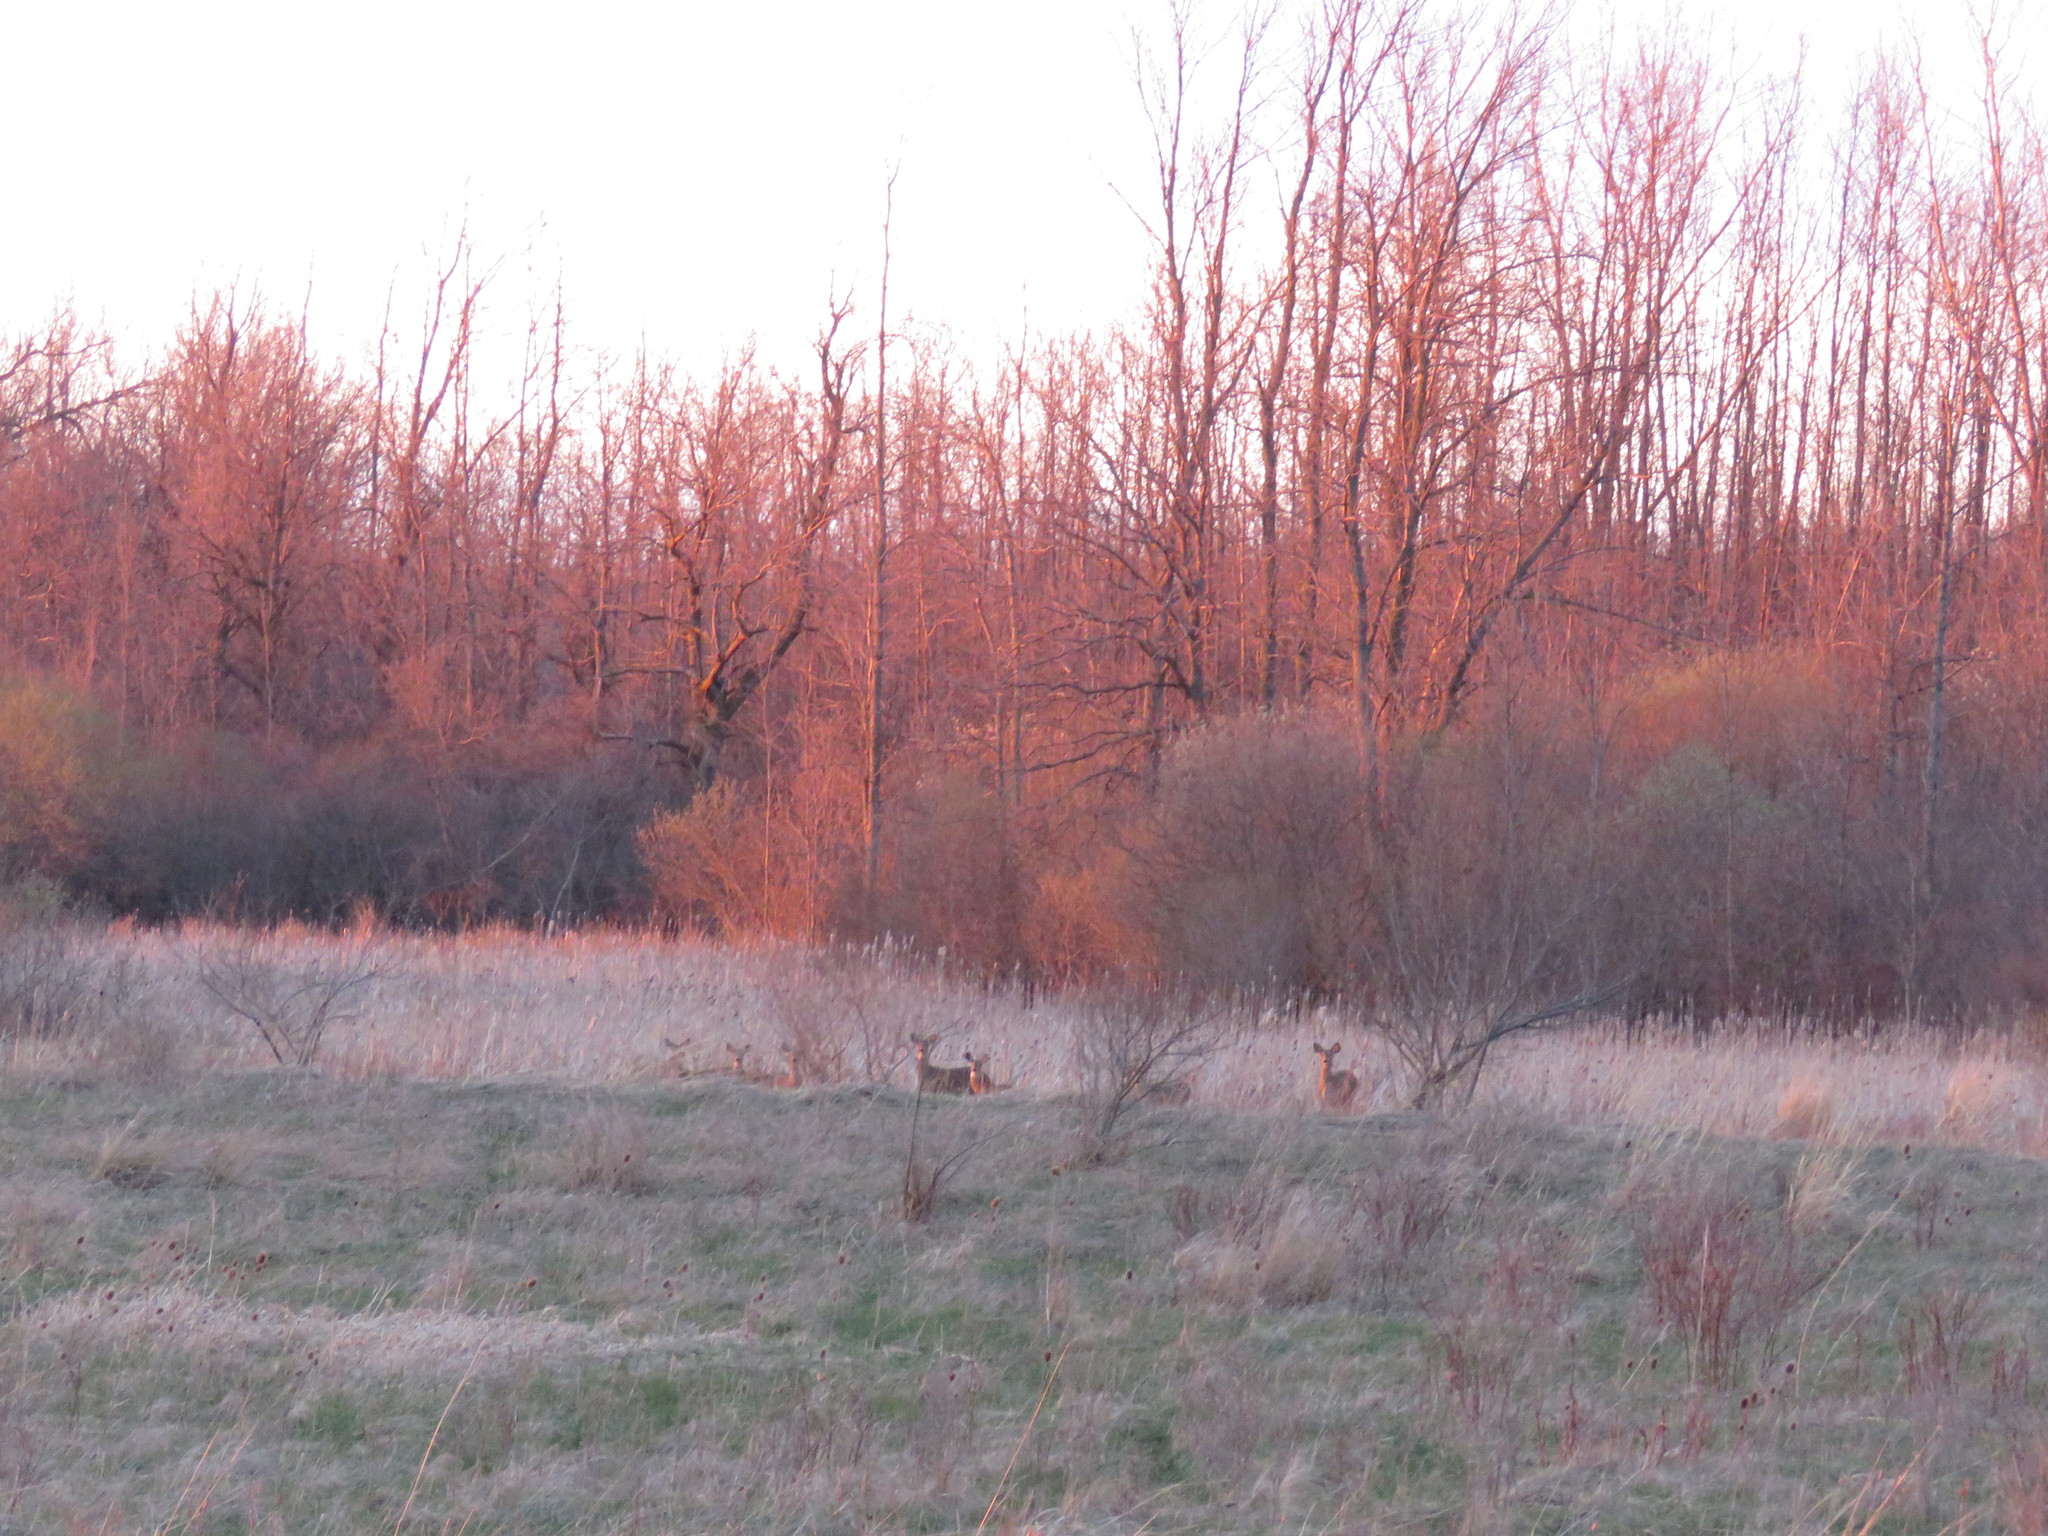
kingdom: Animalia
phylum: Chordata
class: Mammalia
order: Artiodactyla
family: Cervidae
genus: Odocoileus
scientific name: Odocoileus virginianus
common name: White-tailed deer
